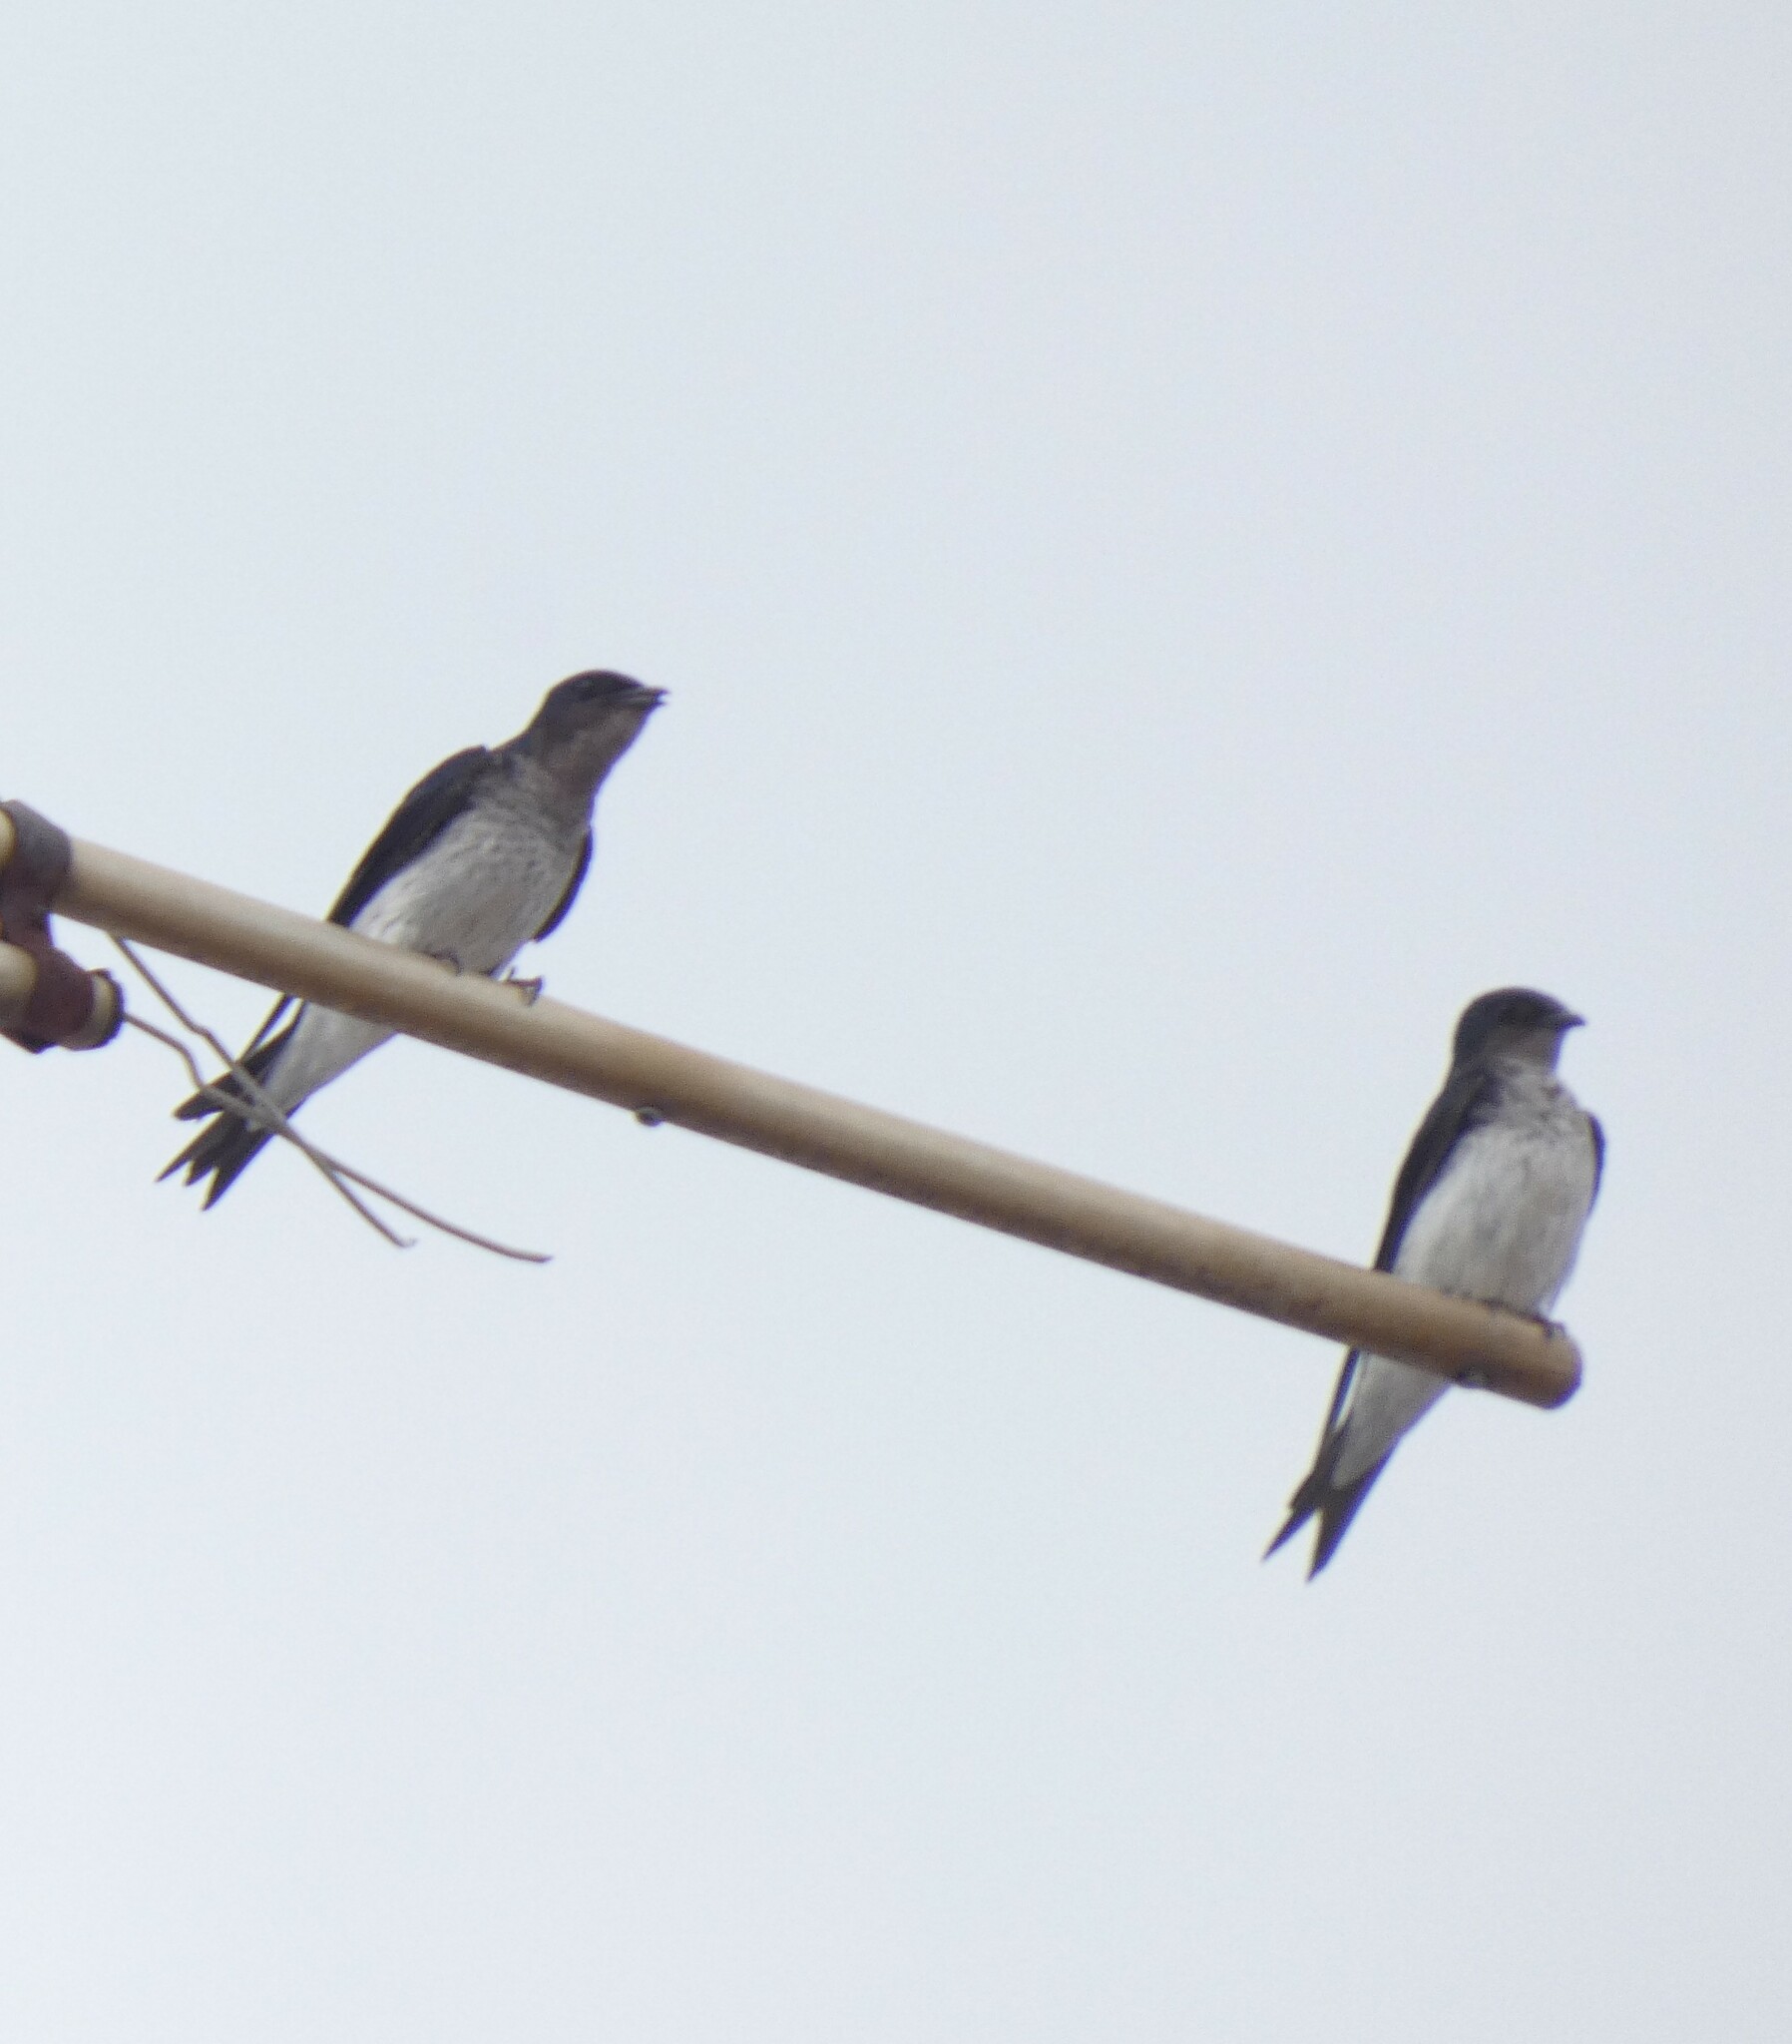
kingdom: Animalia
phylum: Chordata
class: Aves
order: Passeriformes
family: Hirundinidae
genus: Progne
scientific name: Progne chalybea
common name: Grey-breasted martin
